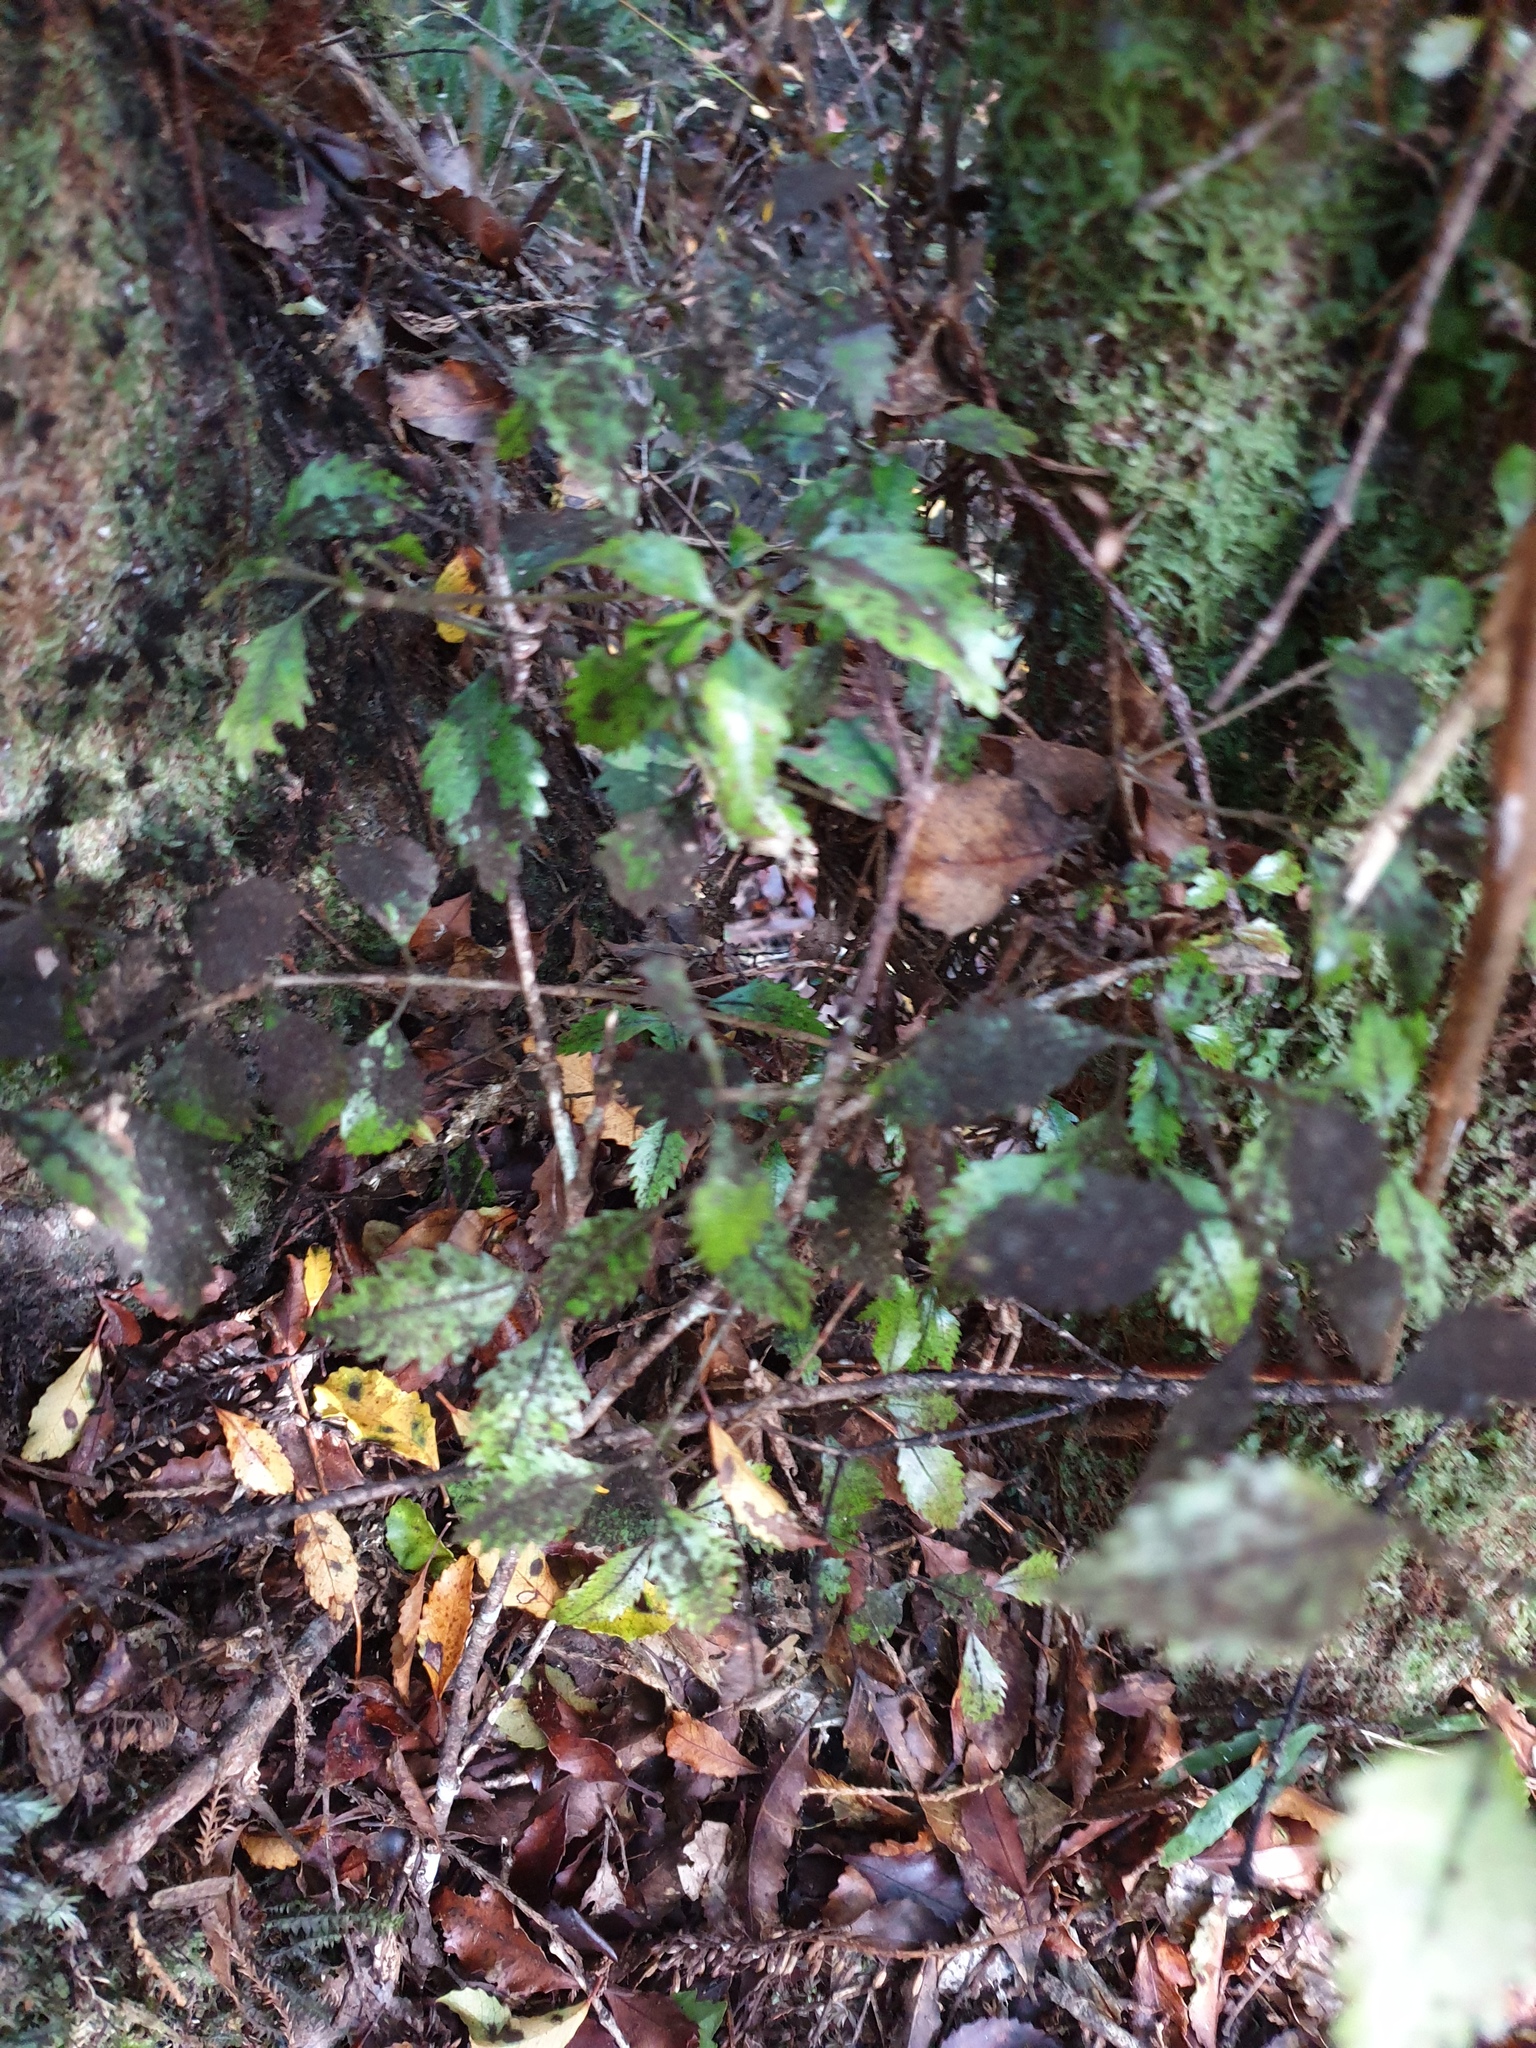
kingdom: Plantae
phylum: Tracheophyta
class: Magnoliopsida
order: Oxalidales
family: Cunoniaceae
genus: Pterophylla
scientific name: Pterophylla racemosa
